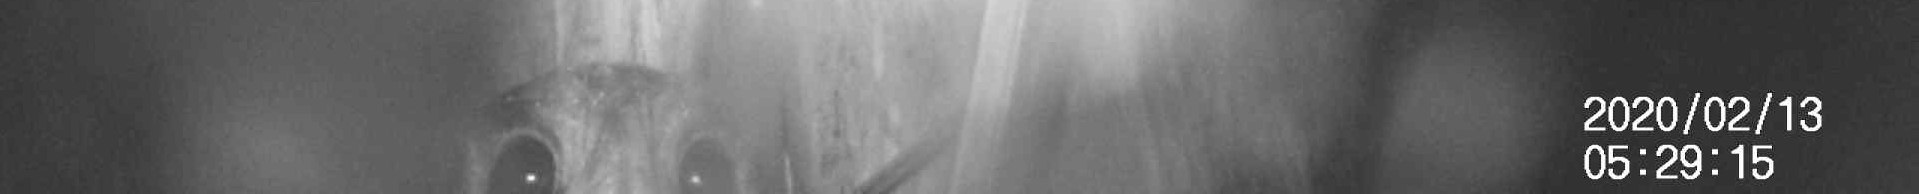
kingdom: Animalia
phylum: Chordata
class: Aves
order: Apodiformes
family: Aegothelidae
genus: Aegotheles
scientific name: Aegotheles cristatus
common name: Australian owlet-nightjar
